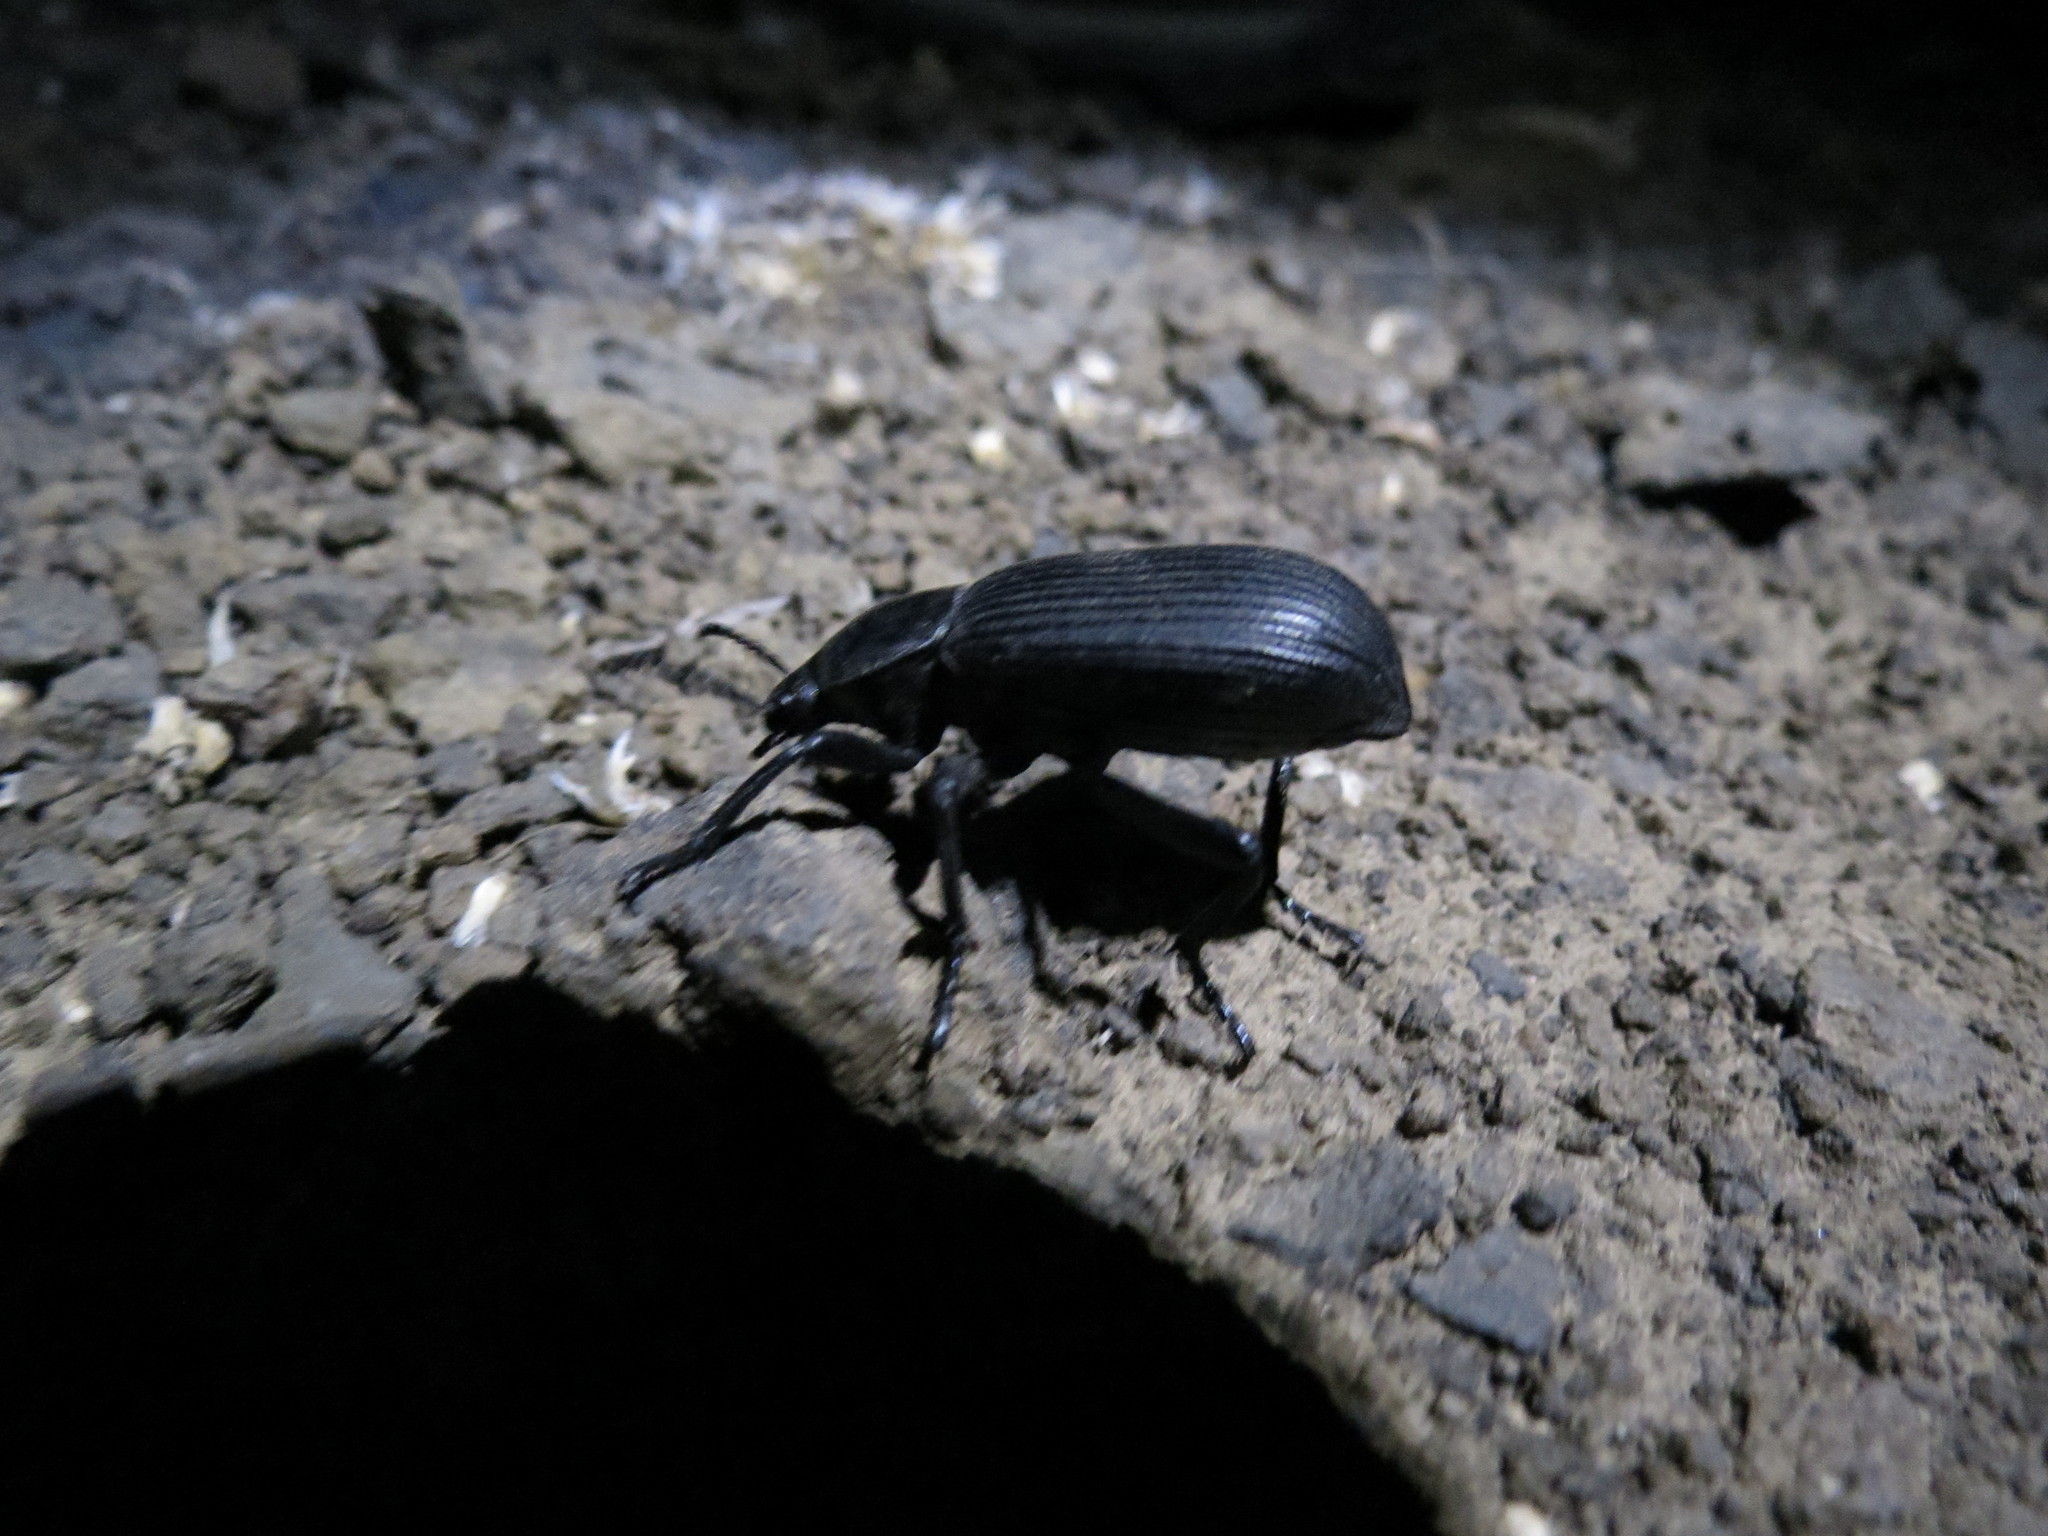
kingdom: Animalia
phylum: Arthropoda
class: Insecta
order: Coleoptera
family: Tenebrionidae
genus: Eleodes
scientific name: Eleodes obscura
